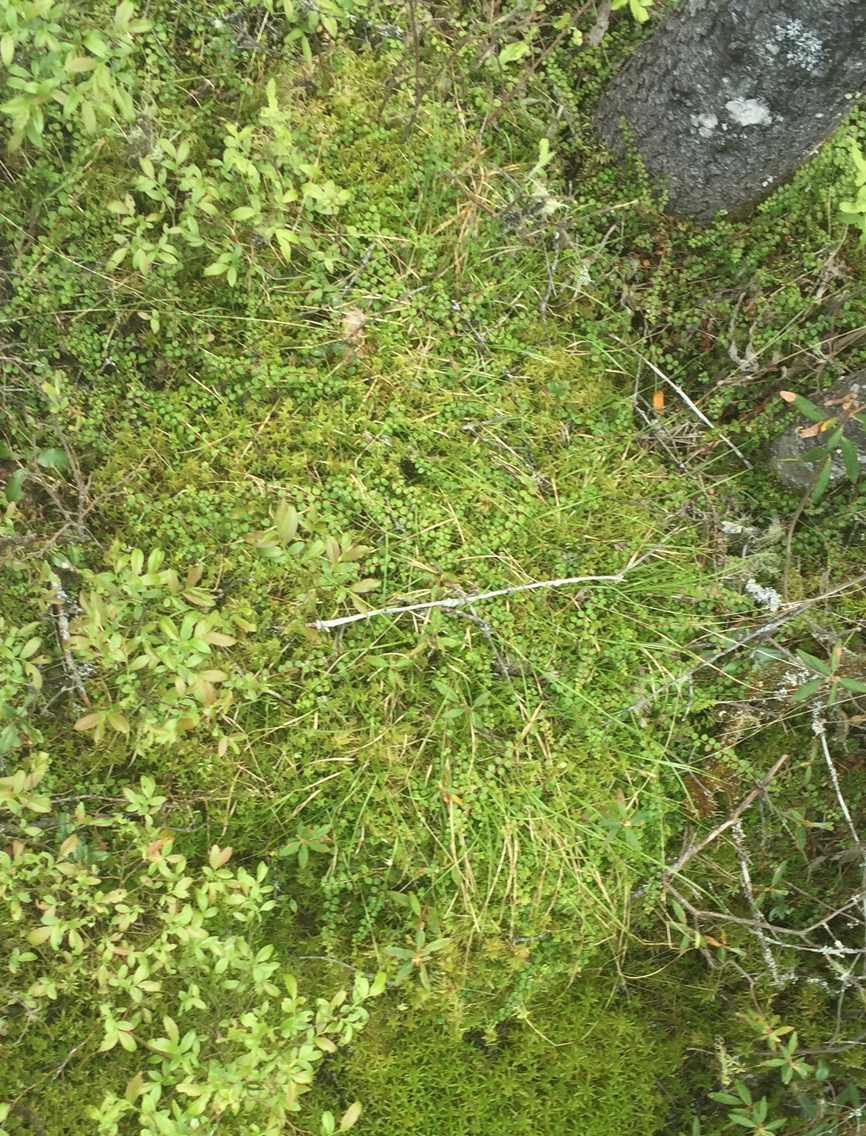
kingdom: Plantae
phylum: Tracheophyta
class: Magnoliopsida
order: Ericales
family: Ericaceae
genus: Vaccinium
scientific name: Vaccinium oxycoccos
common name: Cranberry
